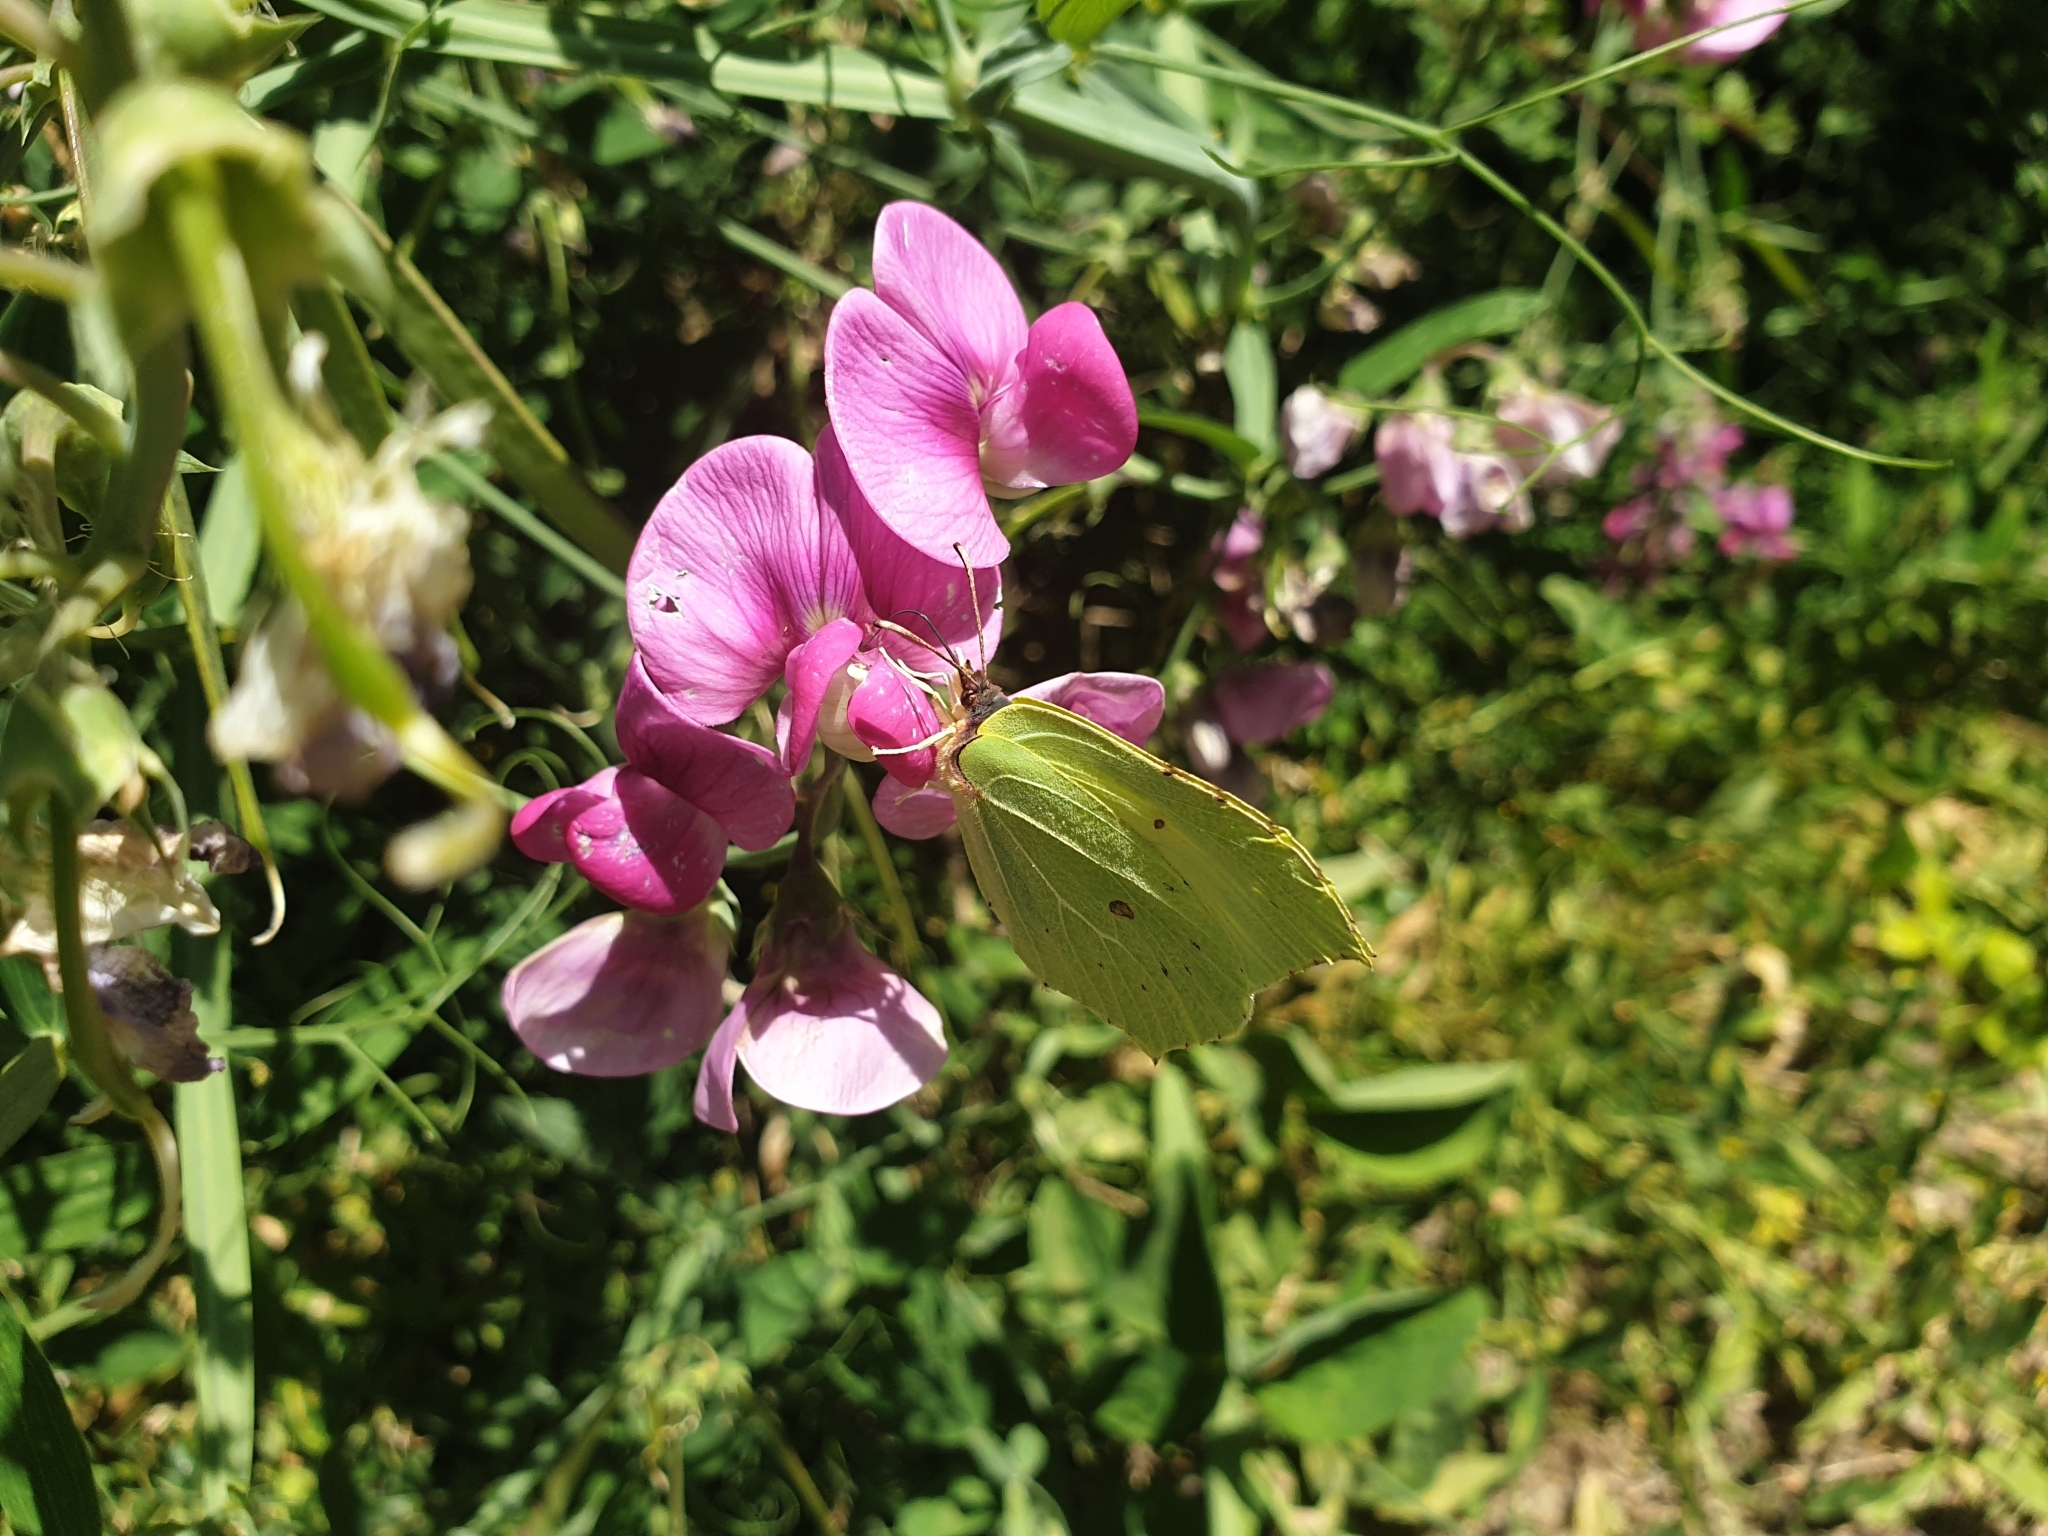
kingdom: Animalia
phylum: Arthropoda
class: Insecta
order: Lepidoptera
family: Pieridae
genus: Gonepteryx
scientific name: Gonepteryx rhamni
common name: Brimstone
